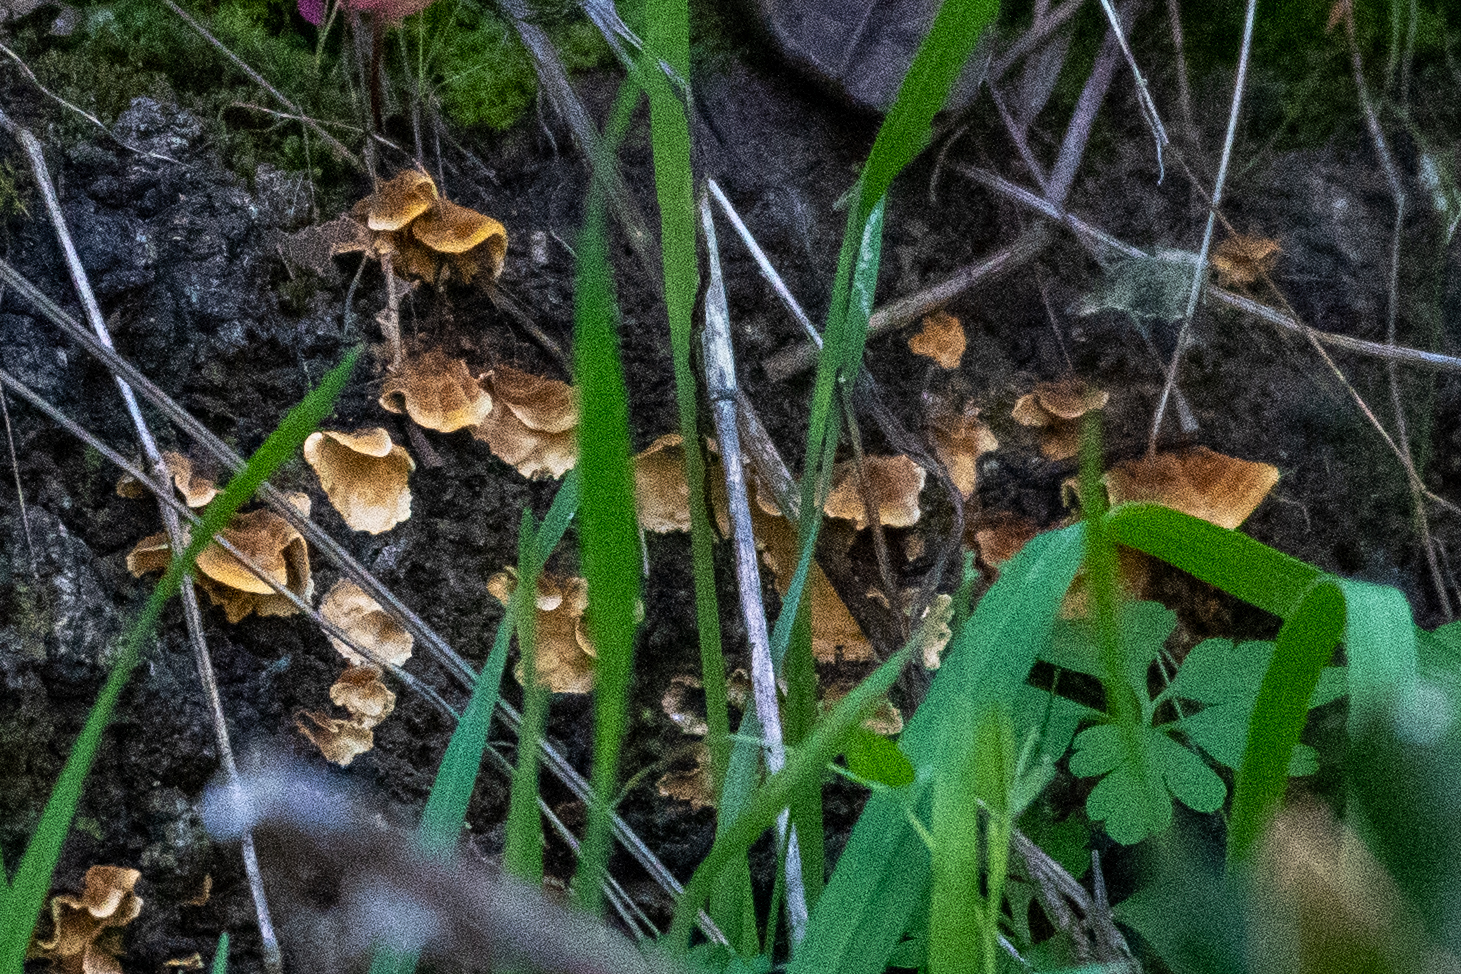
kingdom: Fungi
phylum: Basidiomycota
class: Agaricomycetes
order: Russulales
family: Stereaceae
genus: Stereum
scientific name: Stereum hirsutum
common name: Hairy curtain crust
